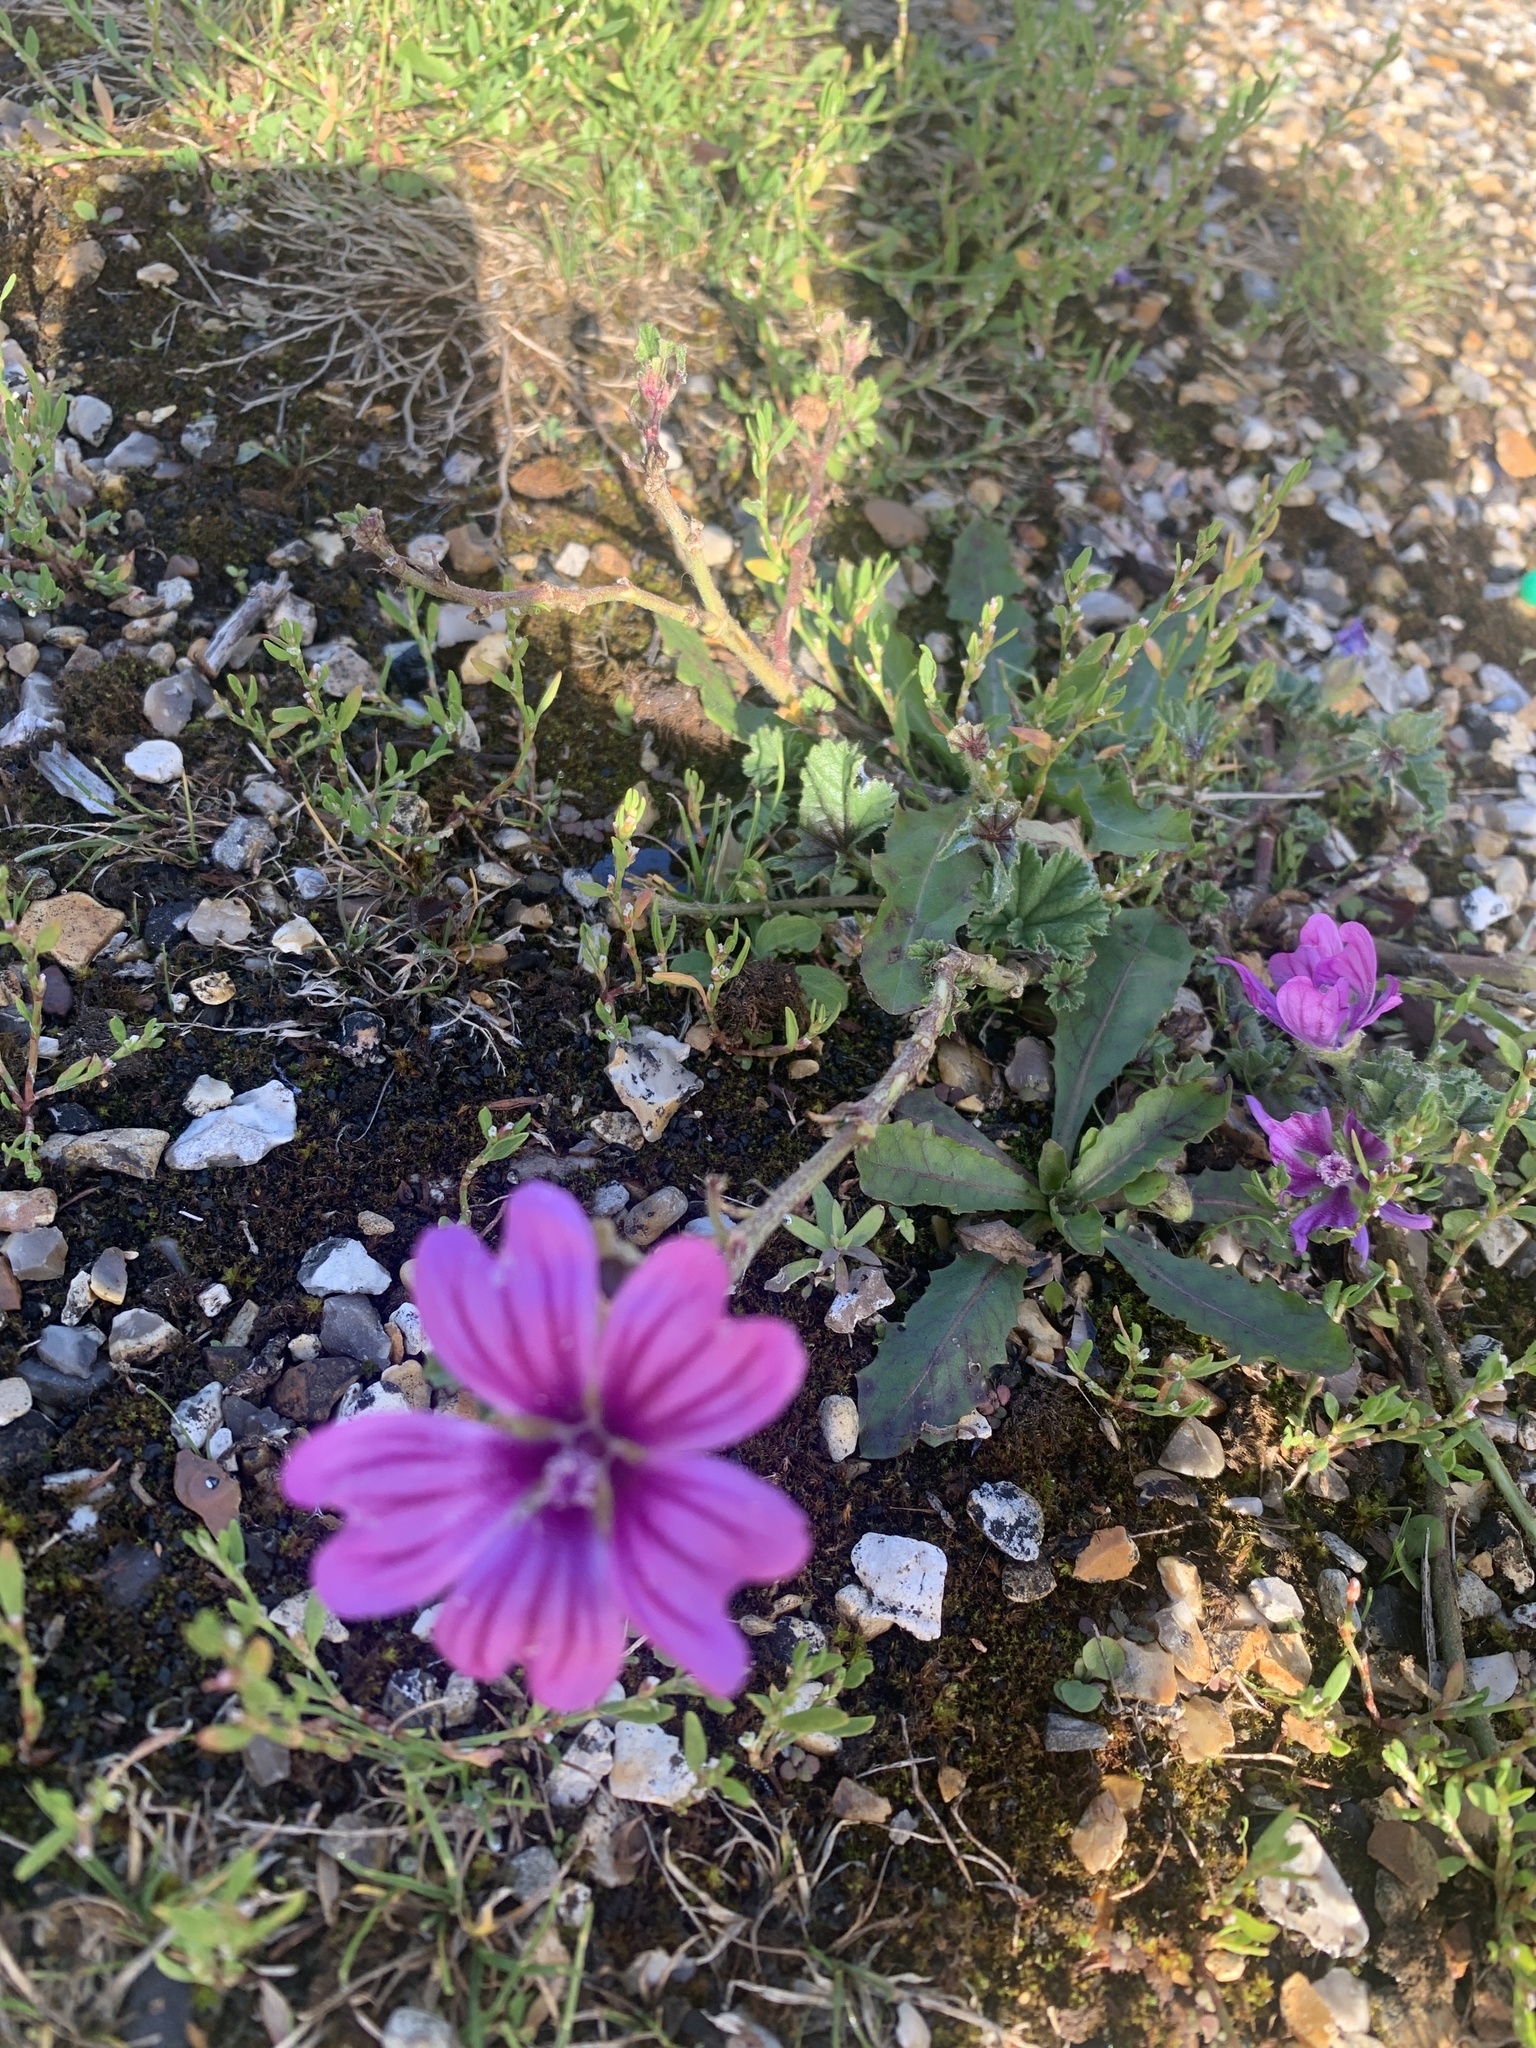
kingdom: Plantae
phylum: Tracheophyta
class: Magnoliopsida
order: Malvales
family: Malvaceae
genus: Malva
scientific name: Malva sylvestris
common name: Common mallow
